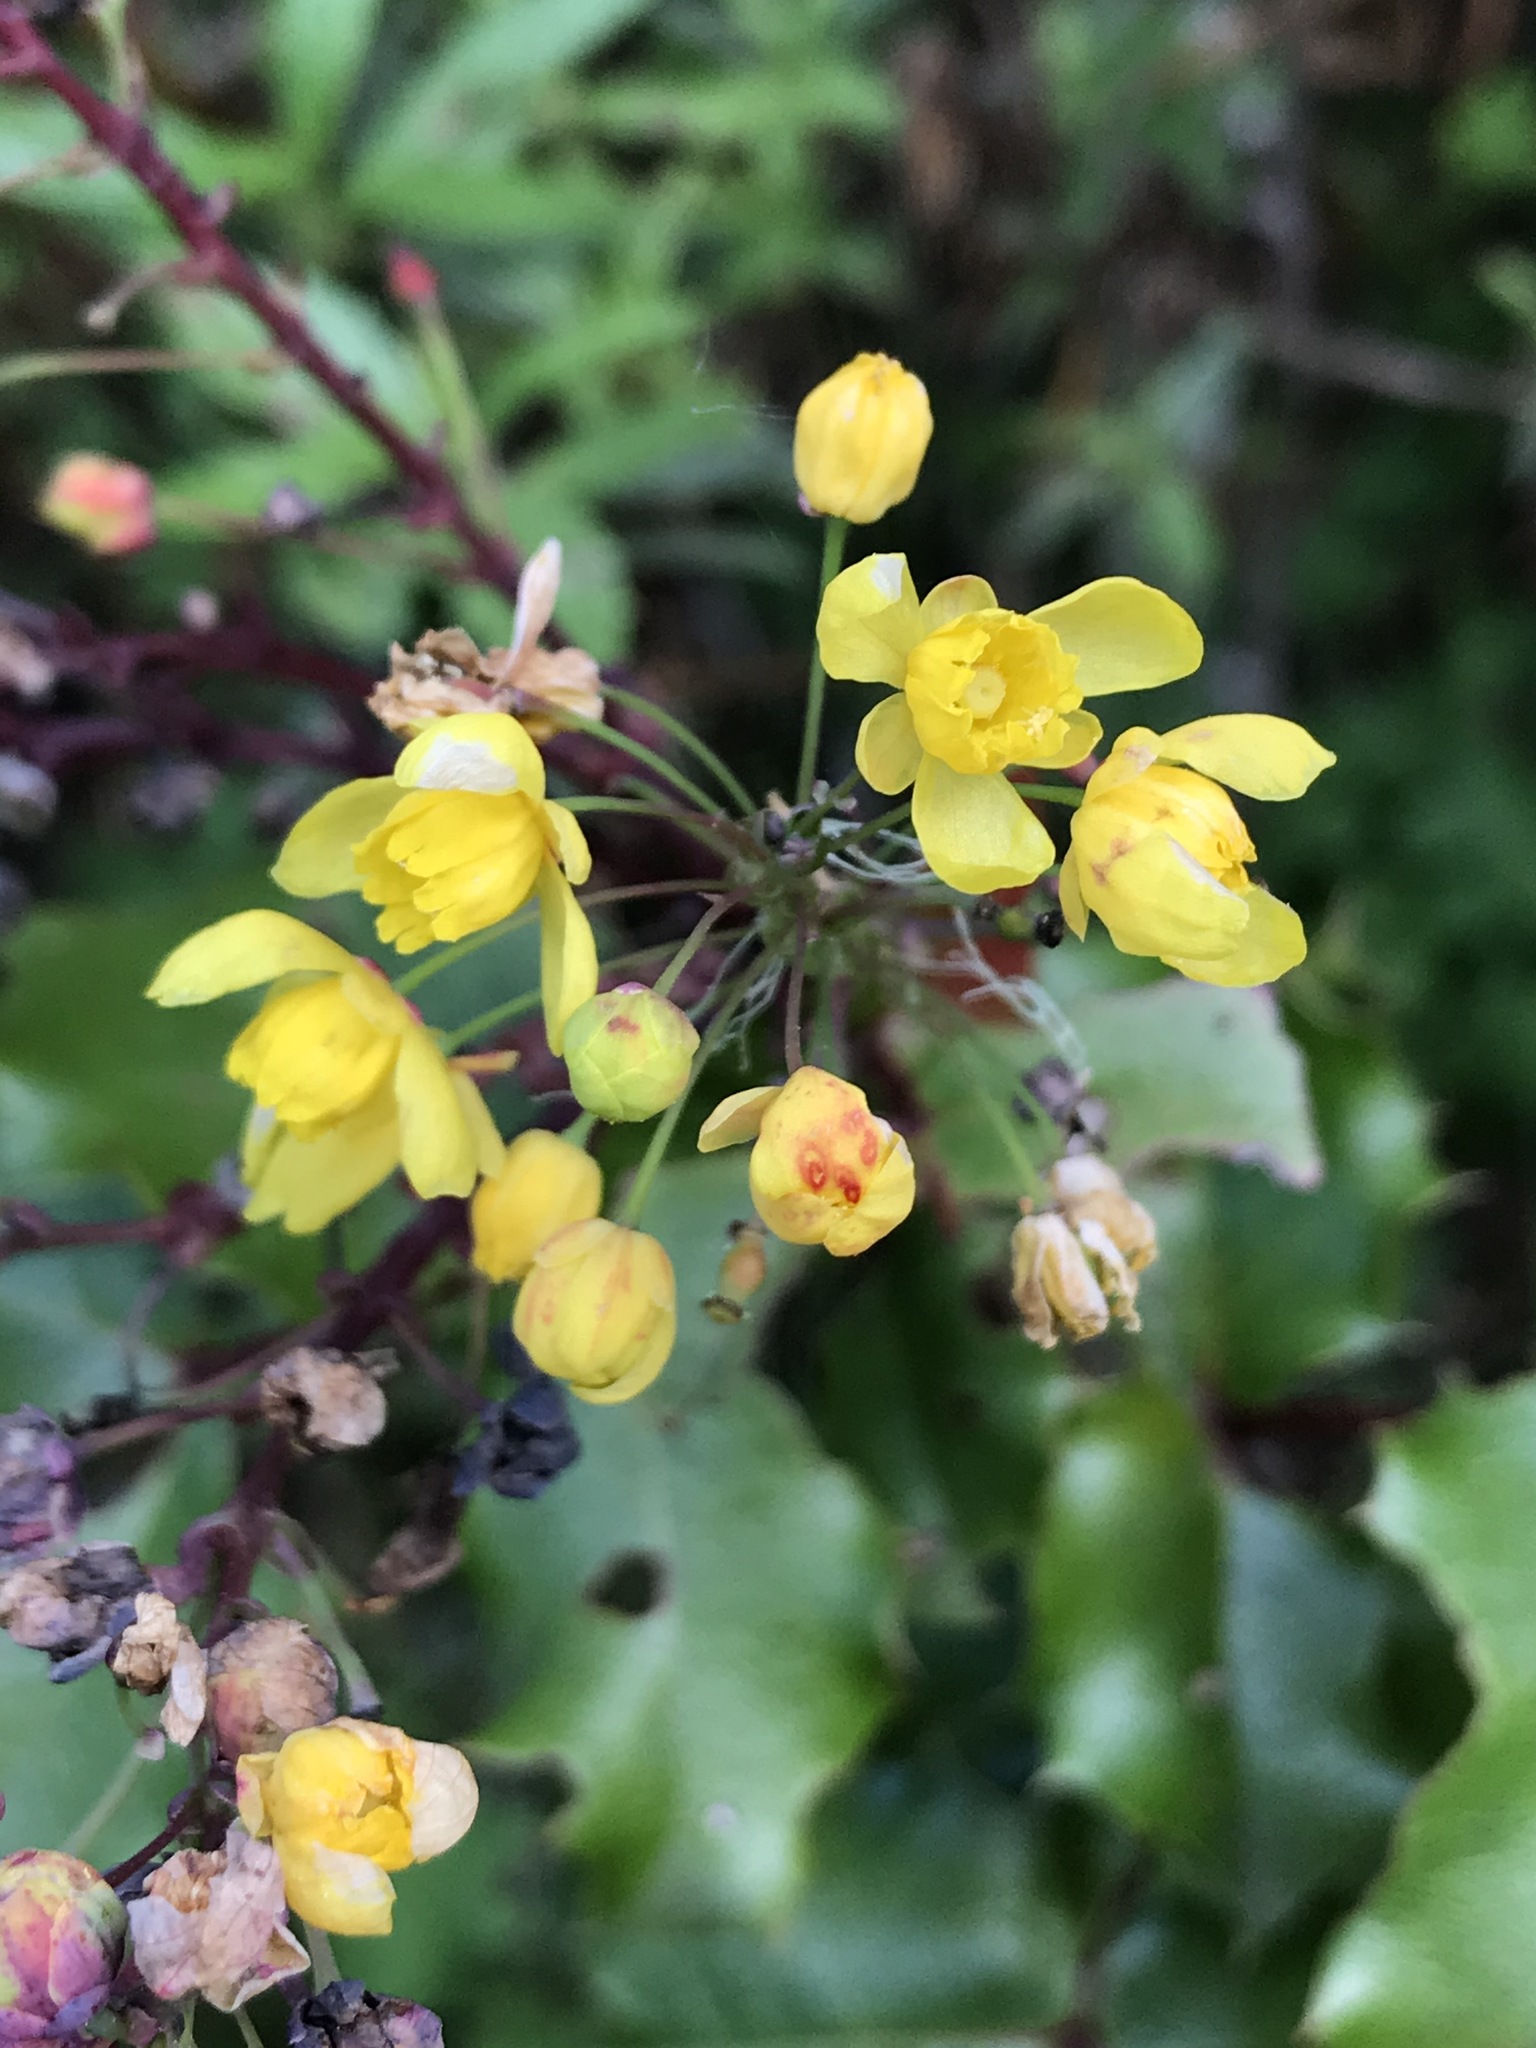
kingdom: Plantae
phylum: Tracheophyta
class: Magnoliopsida
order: Ranunculales
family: Berberidaceae
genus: Mahonia
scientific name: Mahonia
